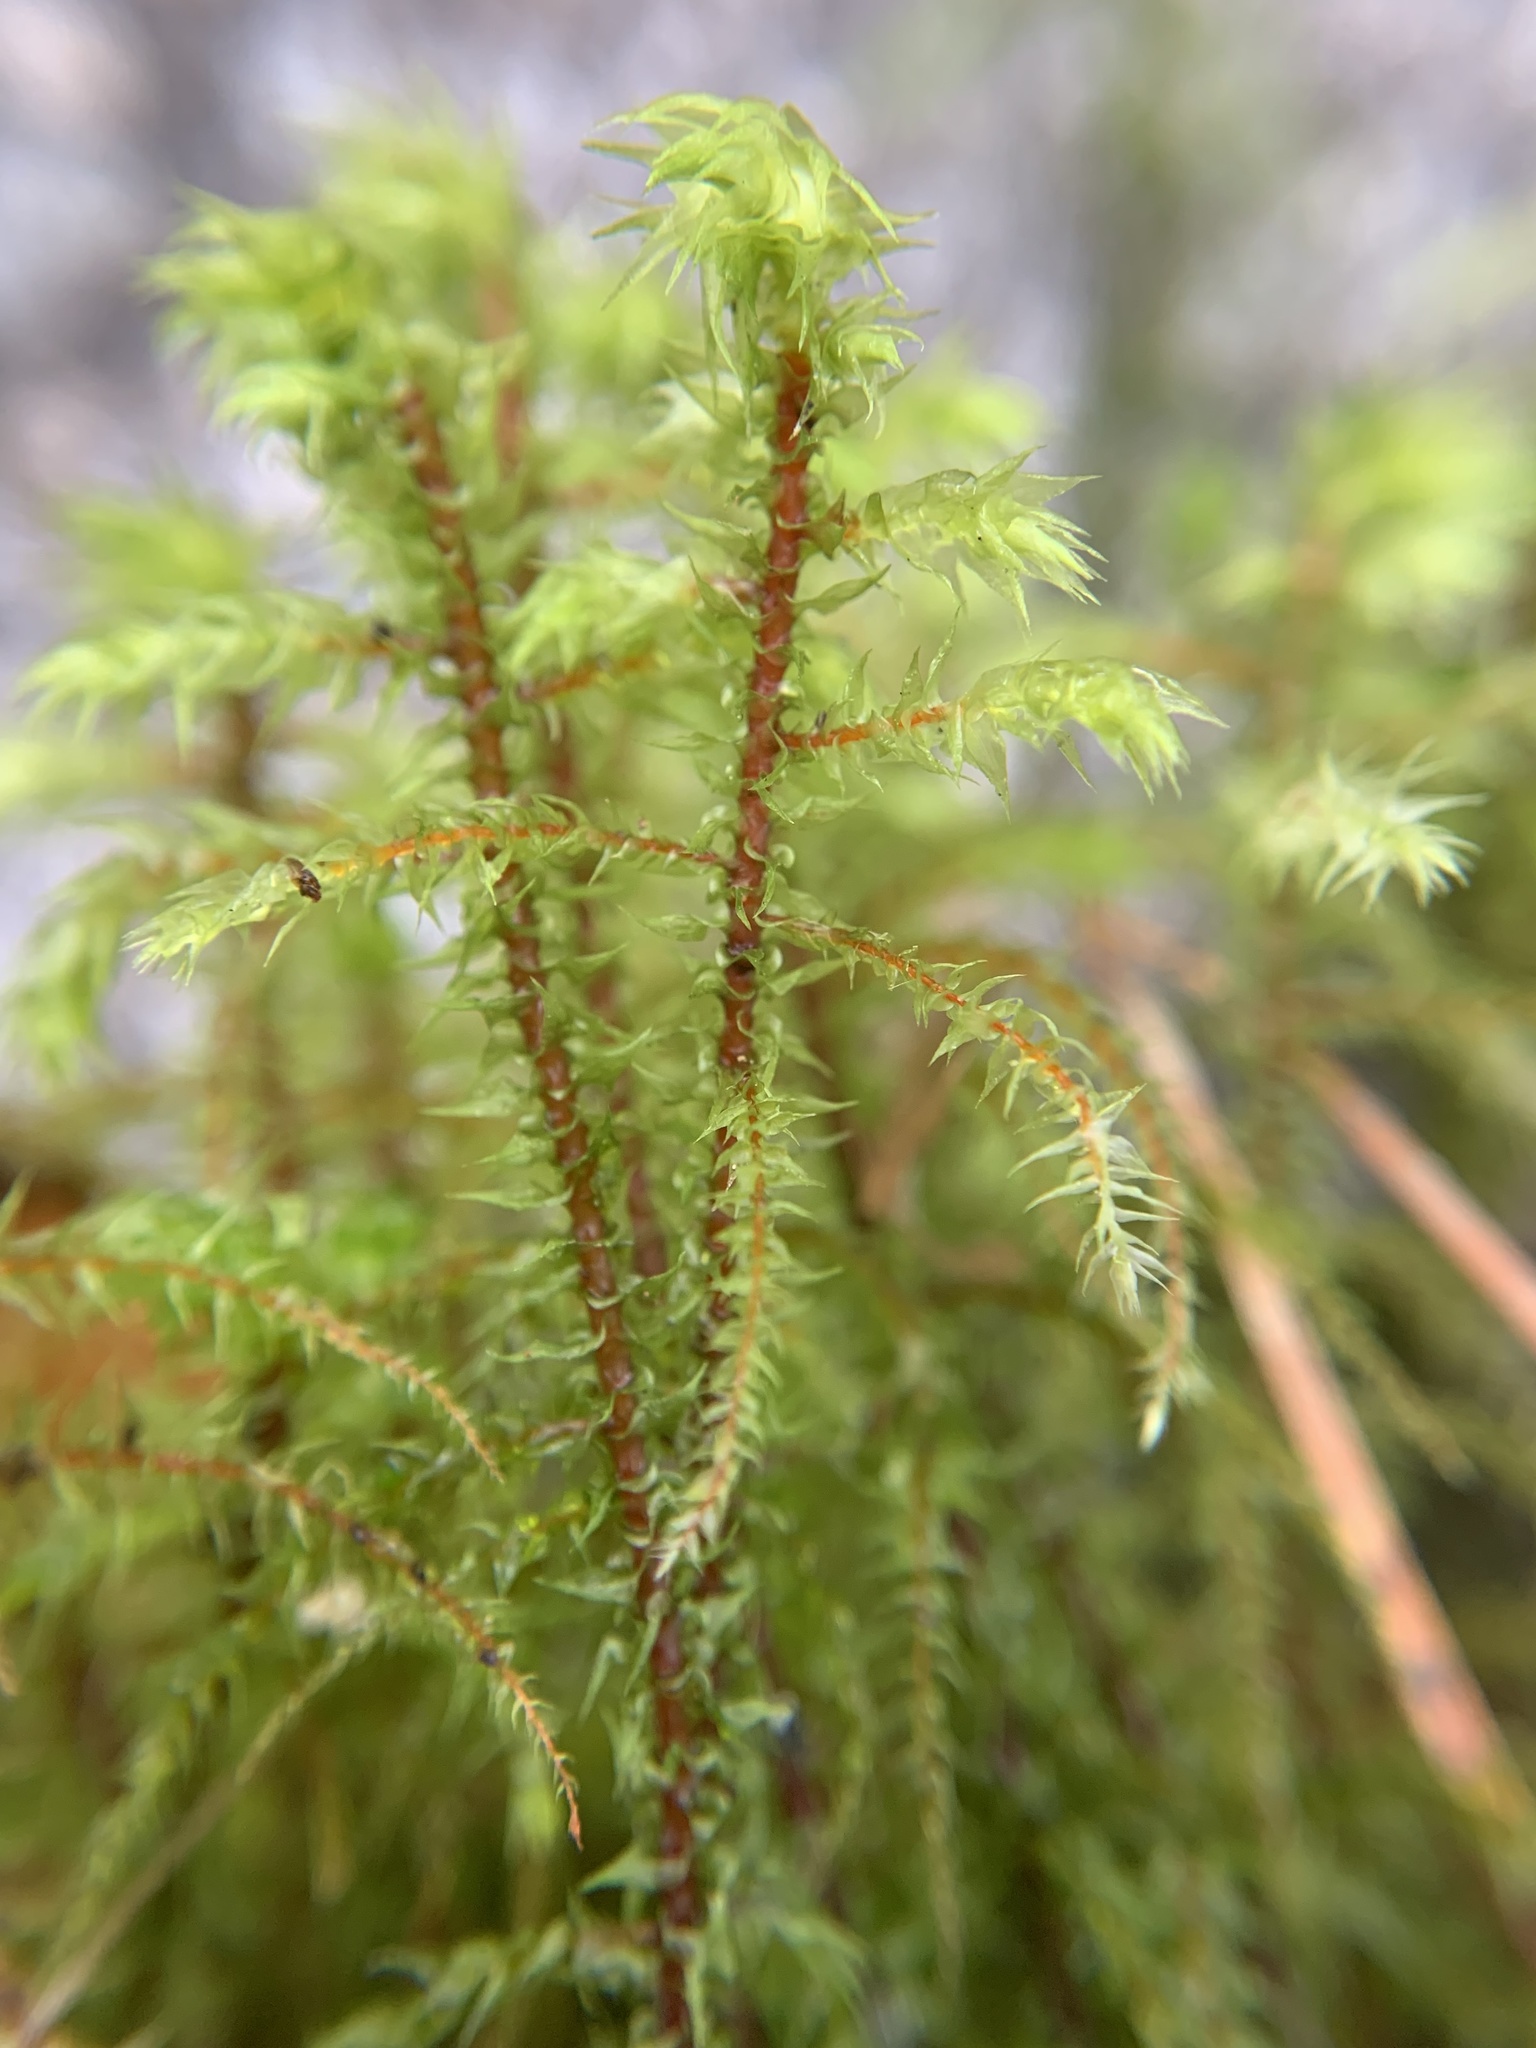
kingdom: Plantae
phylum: Bryophyta
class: Bryopsida
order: Hypnales
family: Hylocomiaceae
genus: Hylocomiadelphus
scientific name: Hylocomiadelphus triquetrus
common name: Rough goose neck moss
